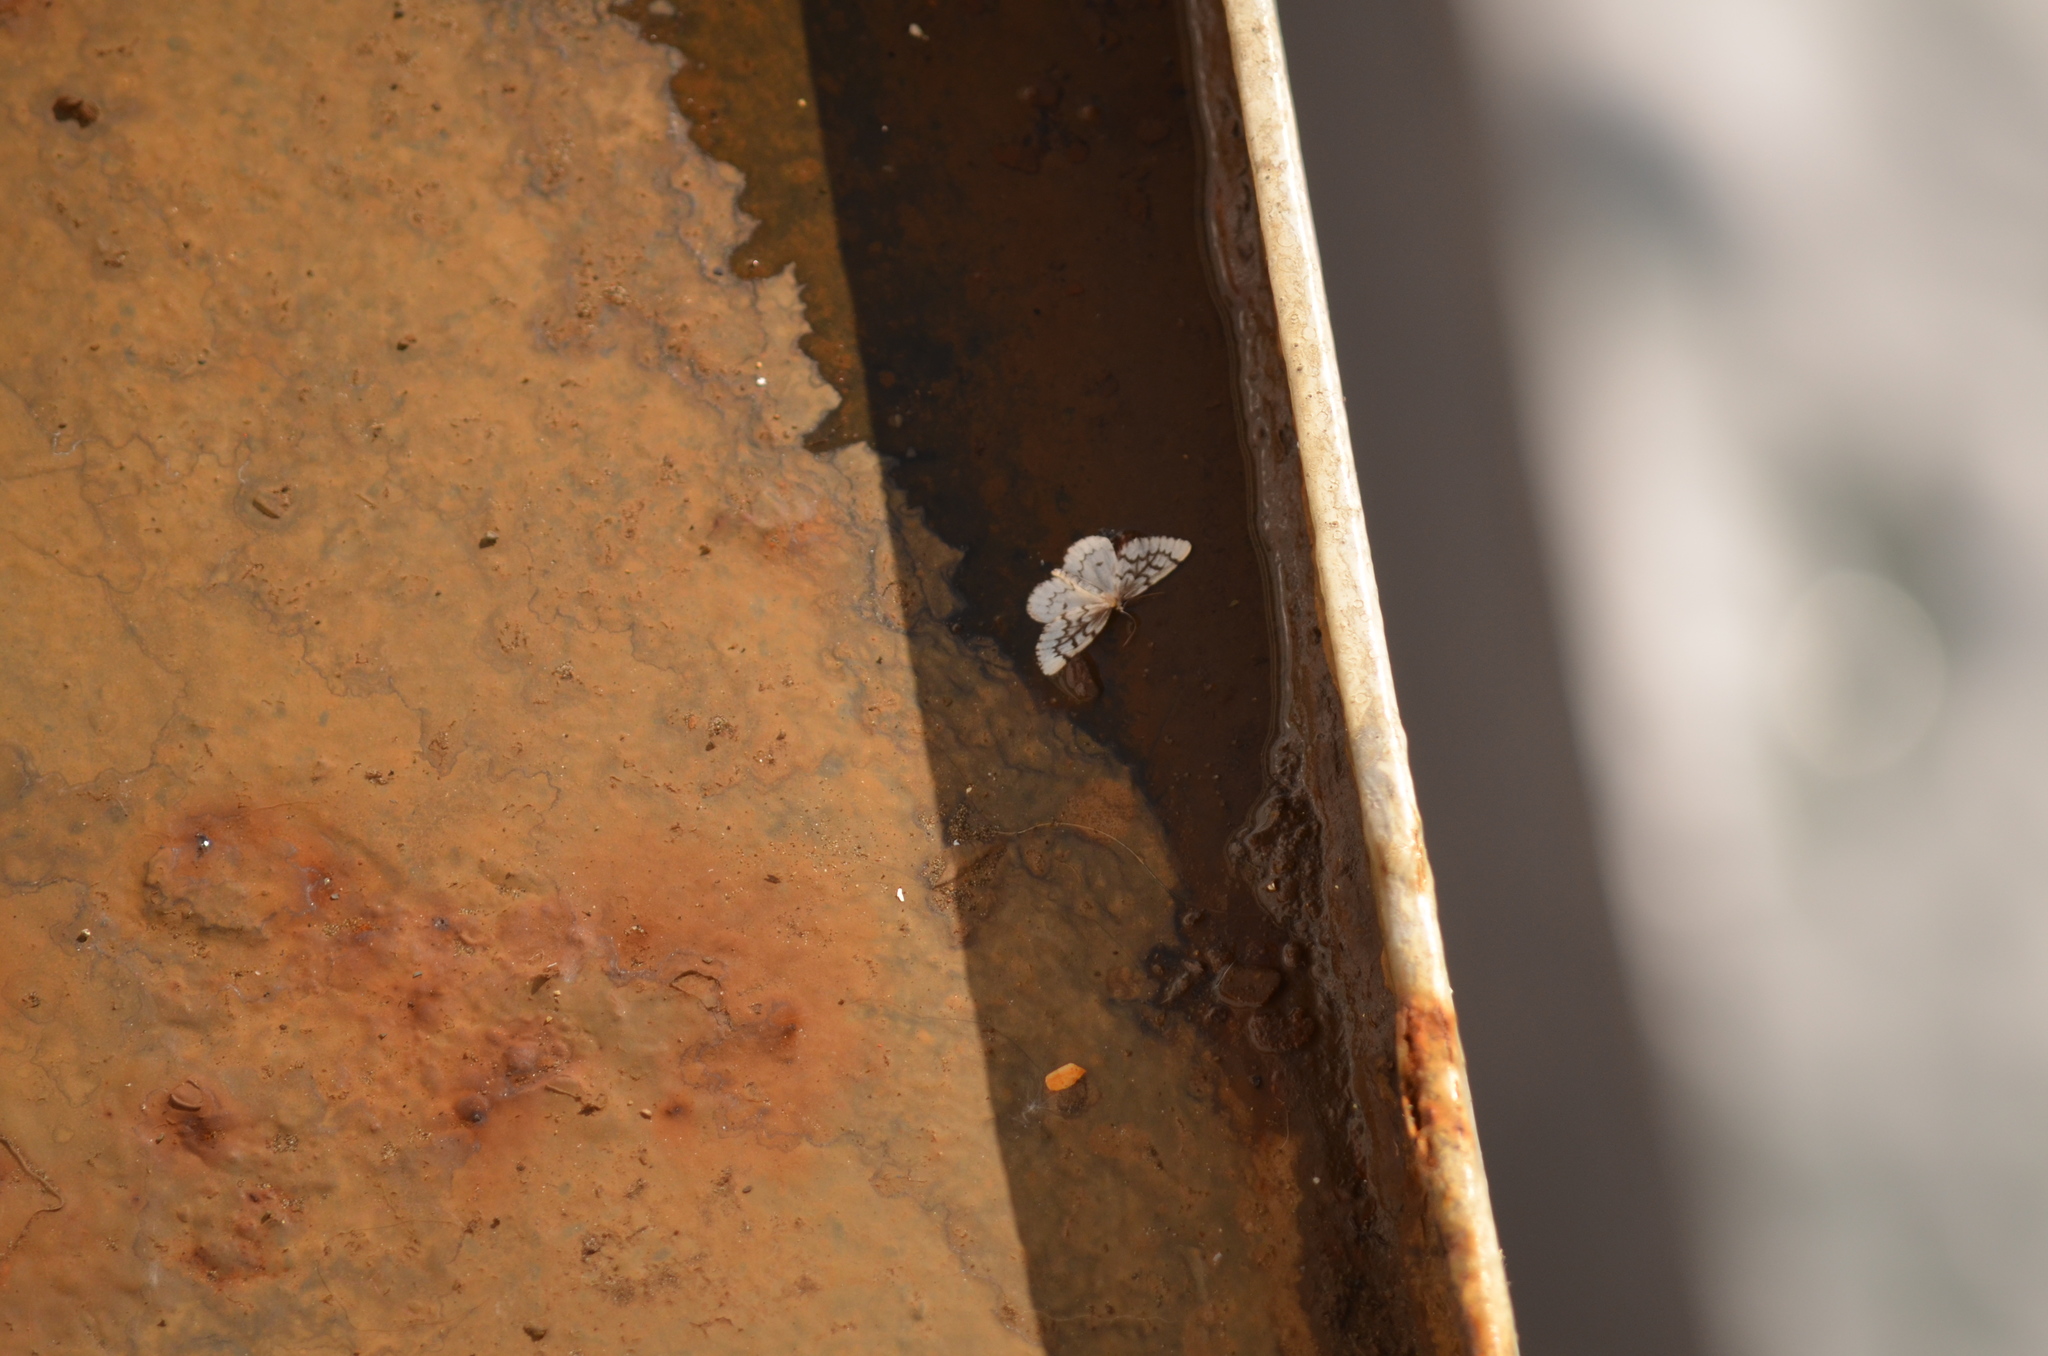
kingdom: Animalia
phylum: Arthropoda
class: Insecta
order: Lepidoptera
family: Geometridae
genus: Nepytia
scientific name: Nepytia phantasmaria
